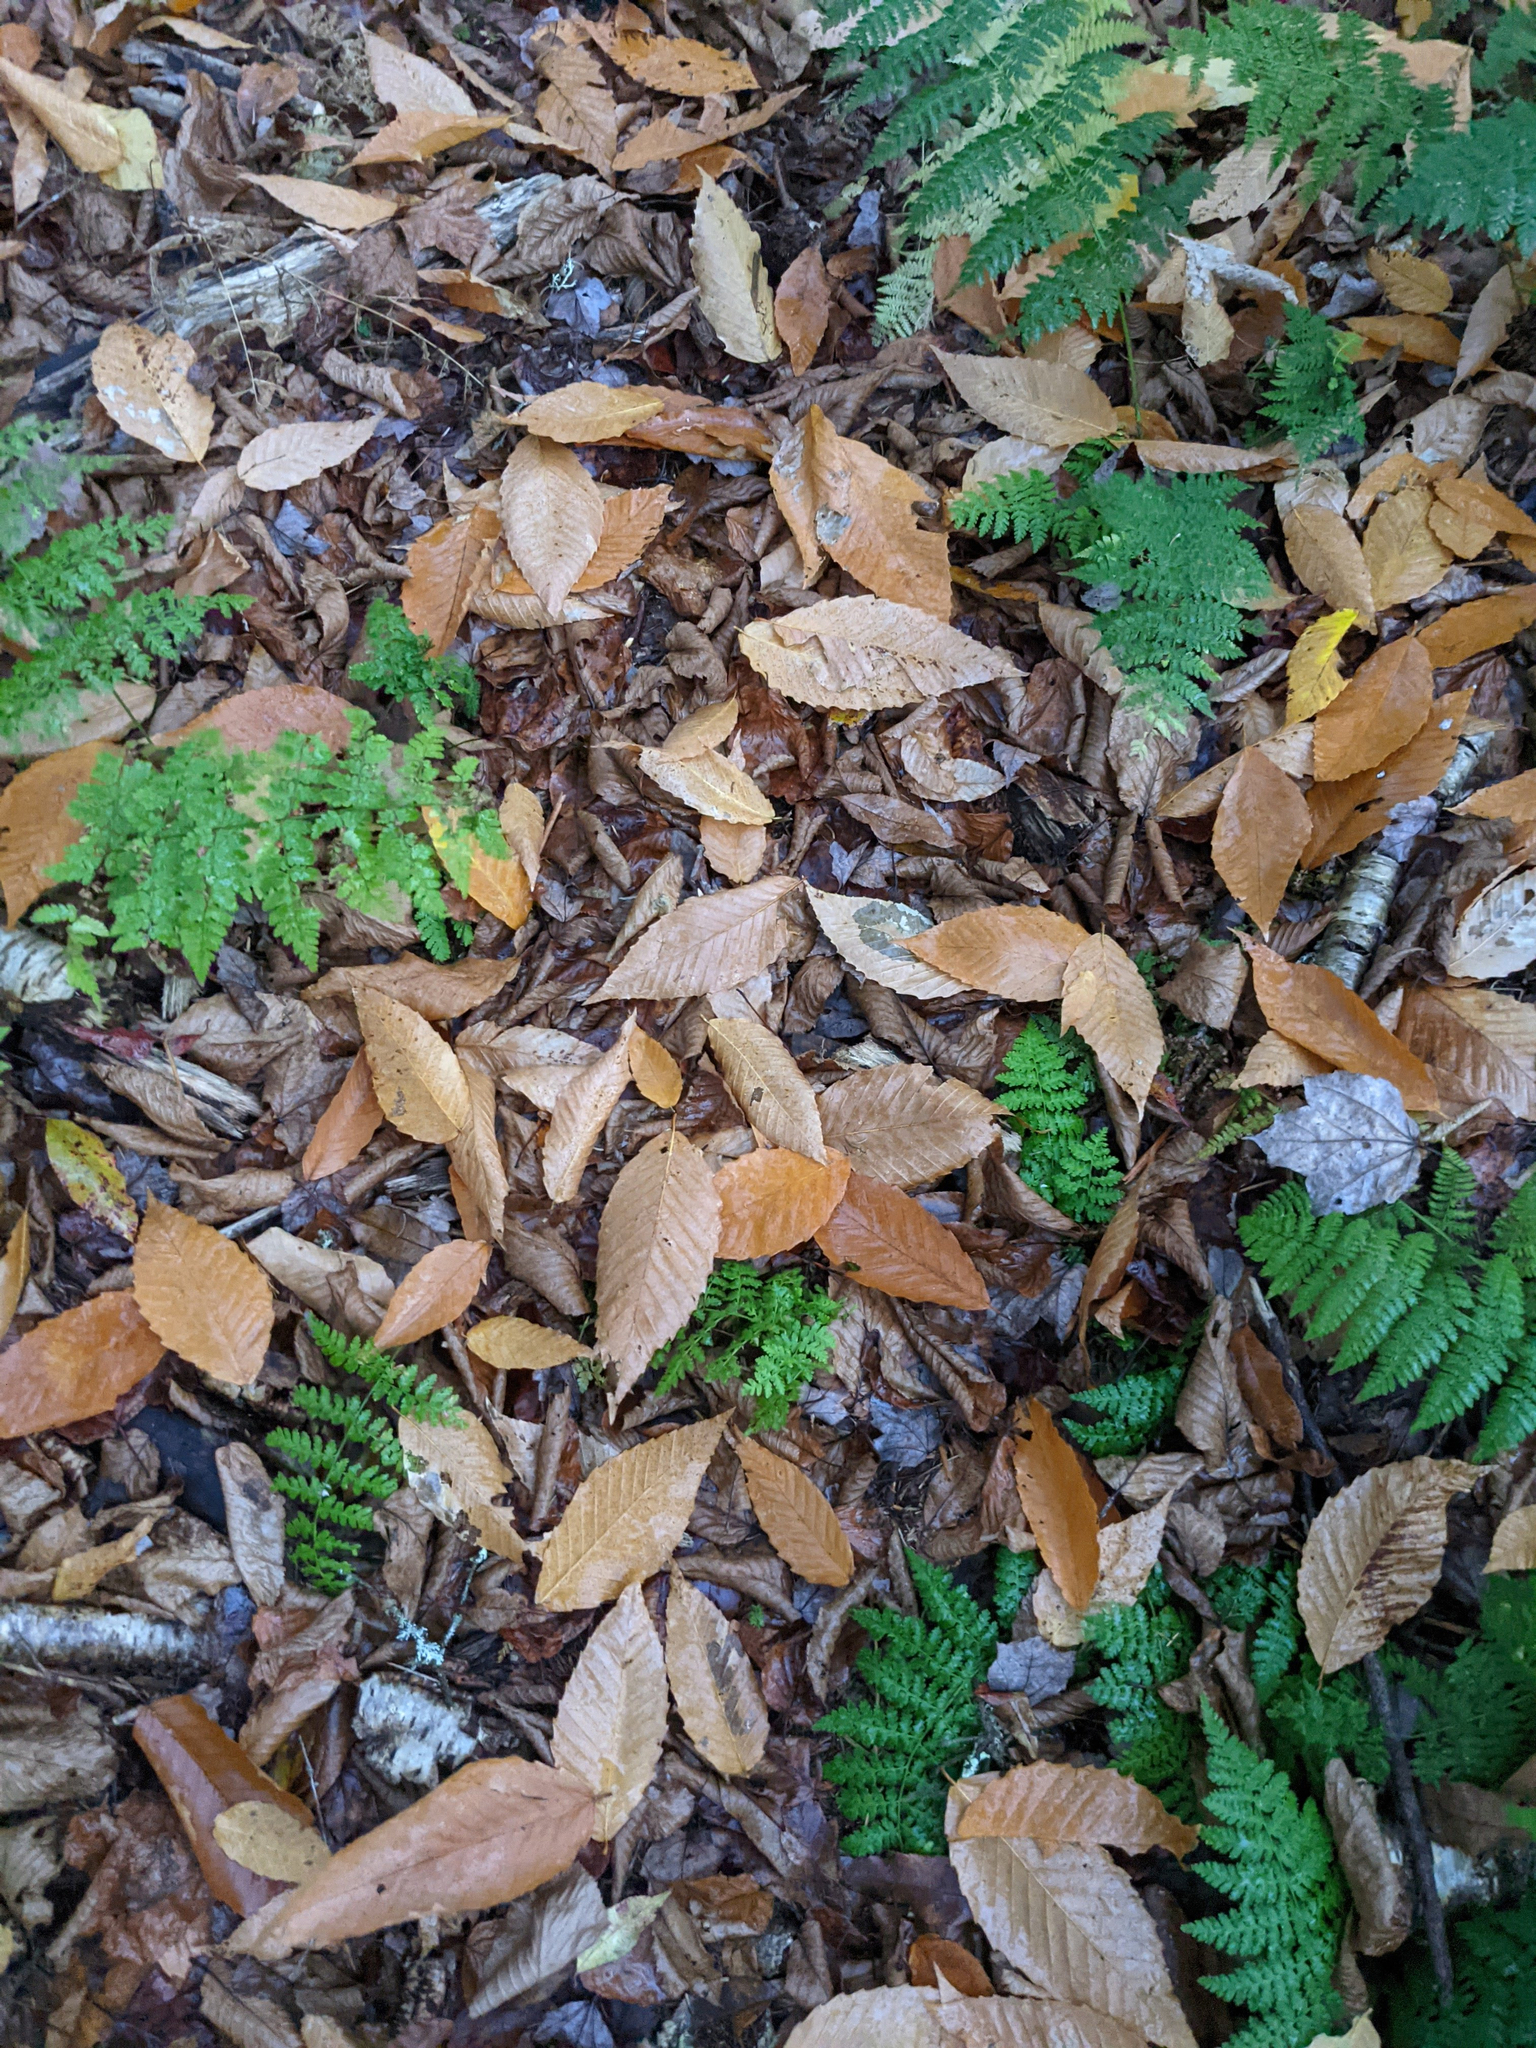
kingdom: Plantae
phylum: Tracheophyta
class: Polypodiopsida
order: Polypodiales
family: Dryopteridaceae
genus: Dryopteris
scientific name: Dryopteris intermedia
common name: Evergreen wood fern
